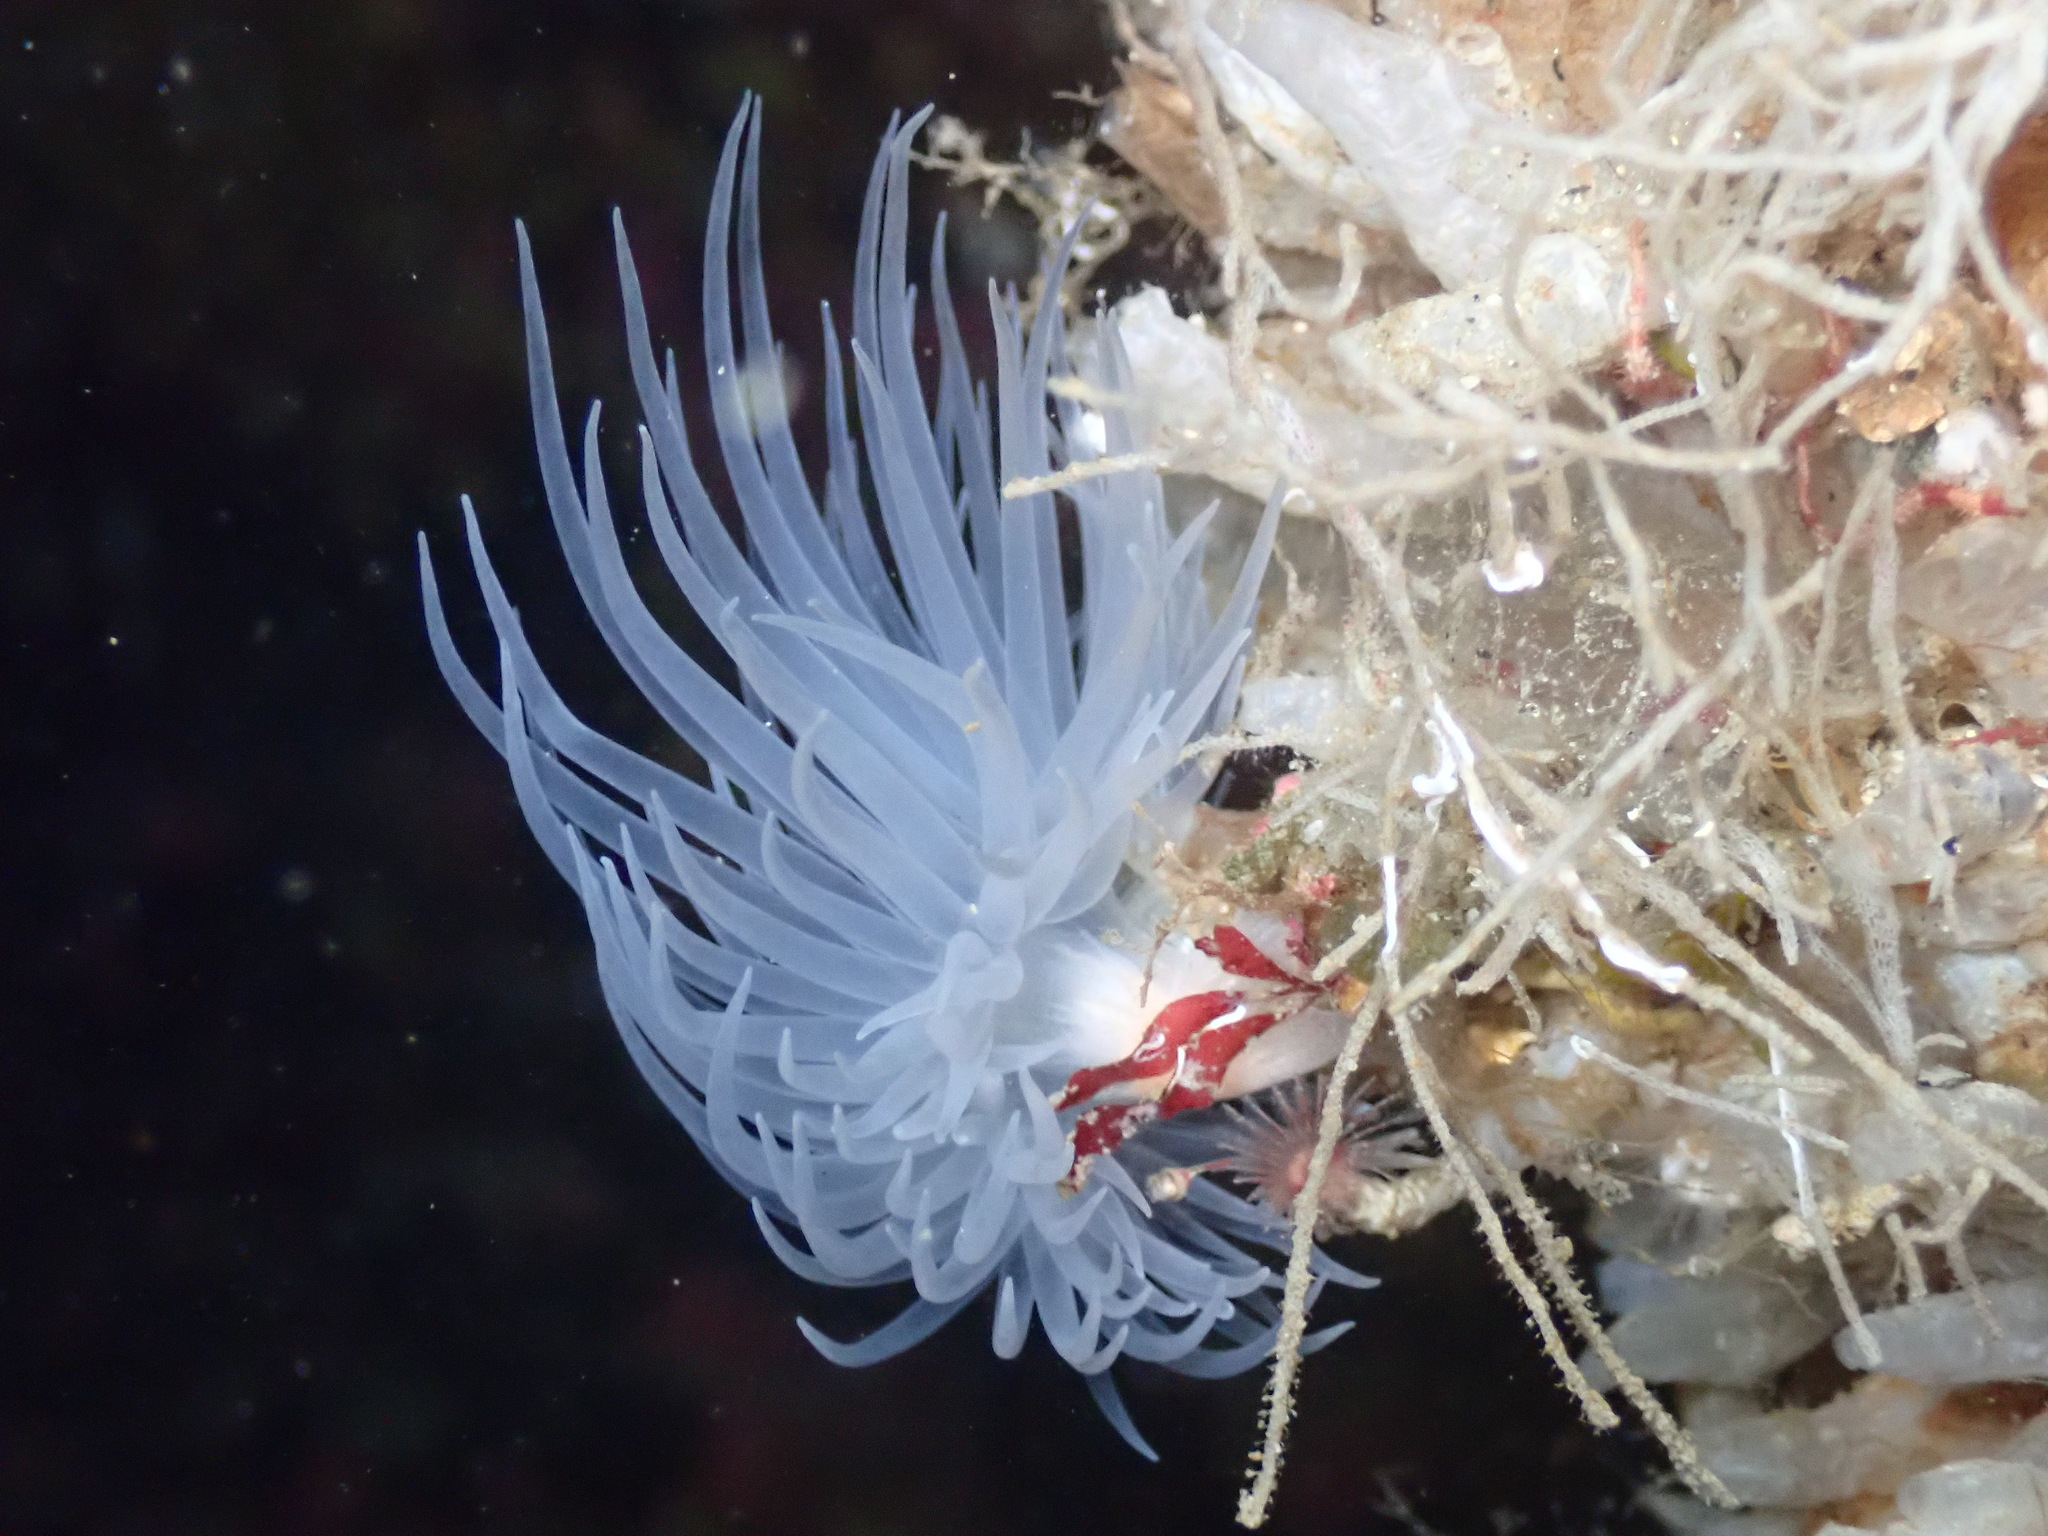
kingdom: Animalia
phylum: Cnidaria
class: Anthozoa
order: Actiniaria
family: Gonactiniidae
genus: Protanthea
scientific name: Protanthea simplex
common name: Sealoch anemone
